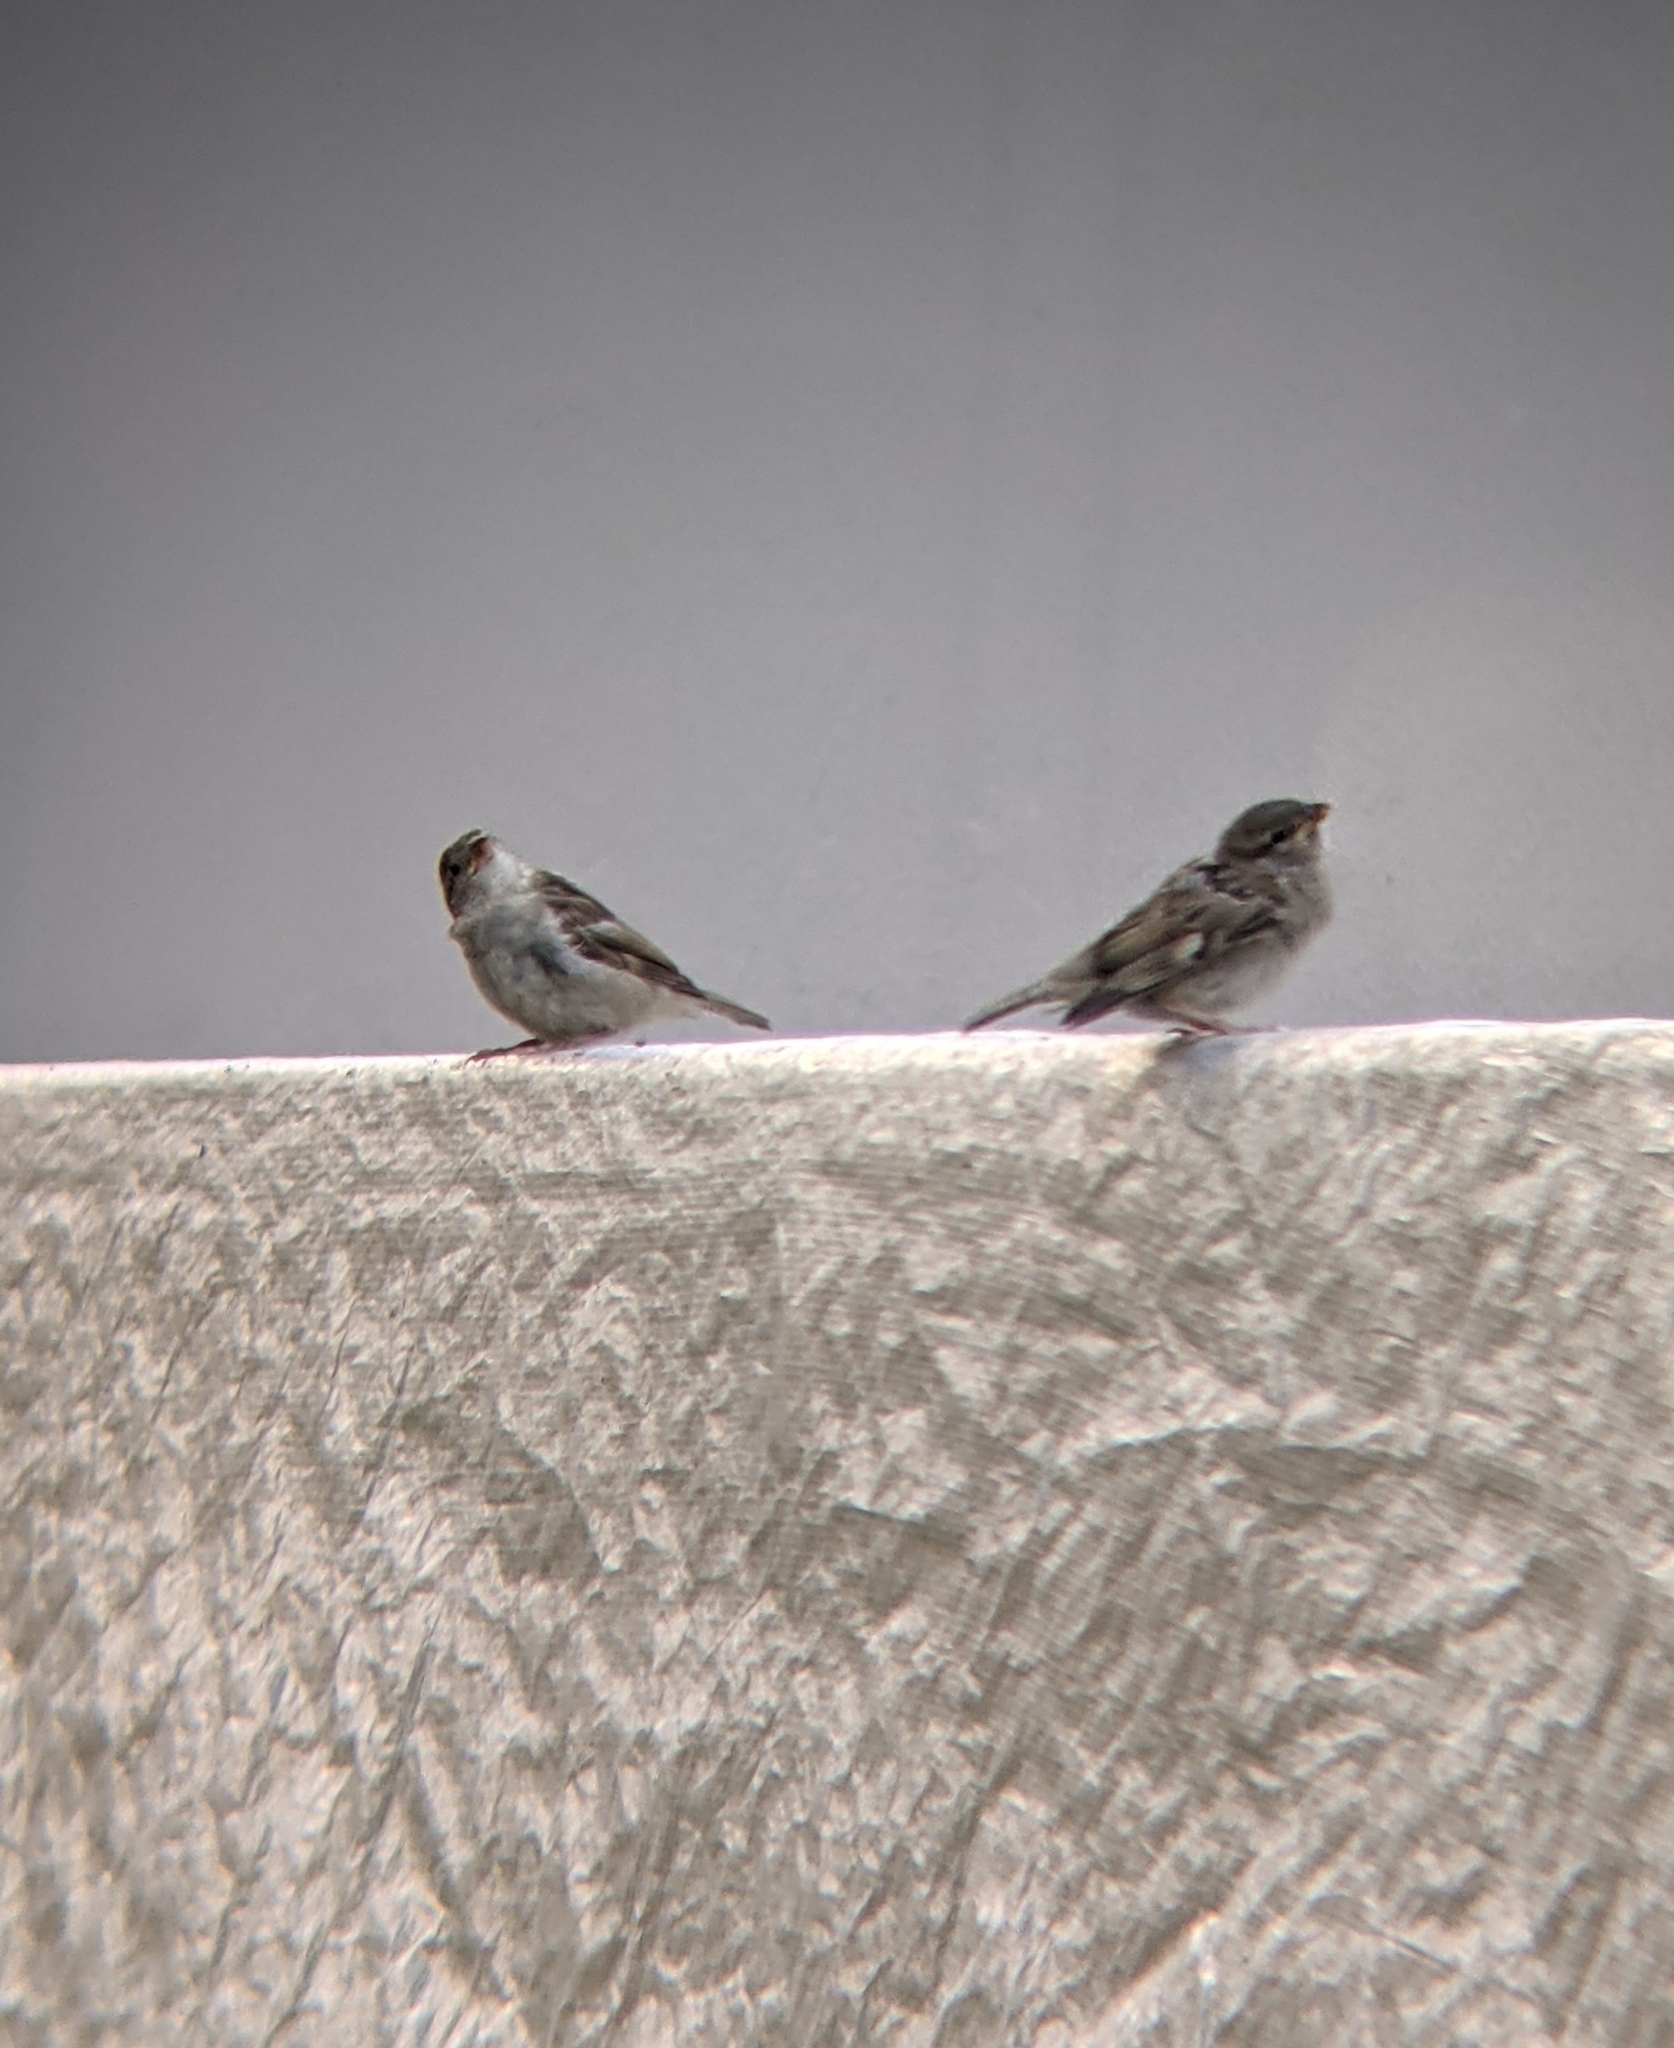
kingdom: Animalia
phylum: Chordata
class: Aves
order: Passeriformes
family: Passeridae
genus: Passer
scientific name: Passer domesticus
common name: House sparrow
